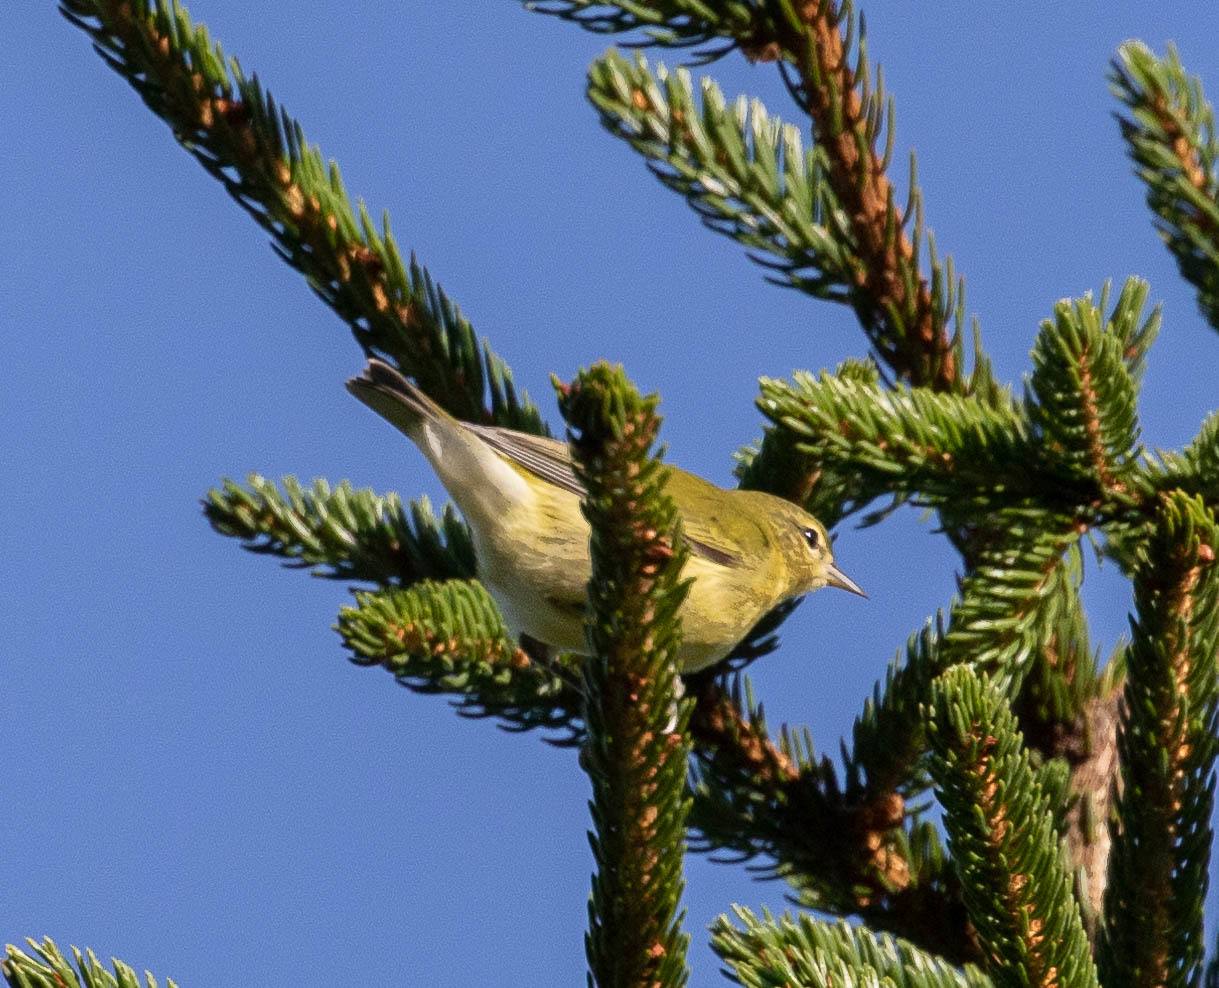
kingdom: Animalia
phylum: Chordata
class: Aves
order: Passeriformes
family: Parulidae
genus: Leiothlypis
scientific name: Leiothlypis peregrina
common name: Tennessee warbler
